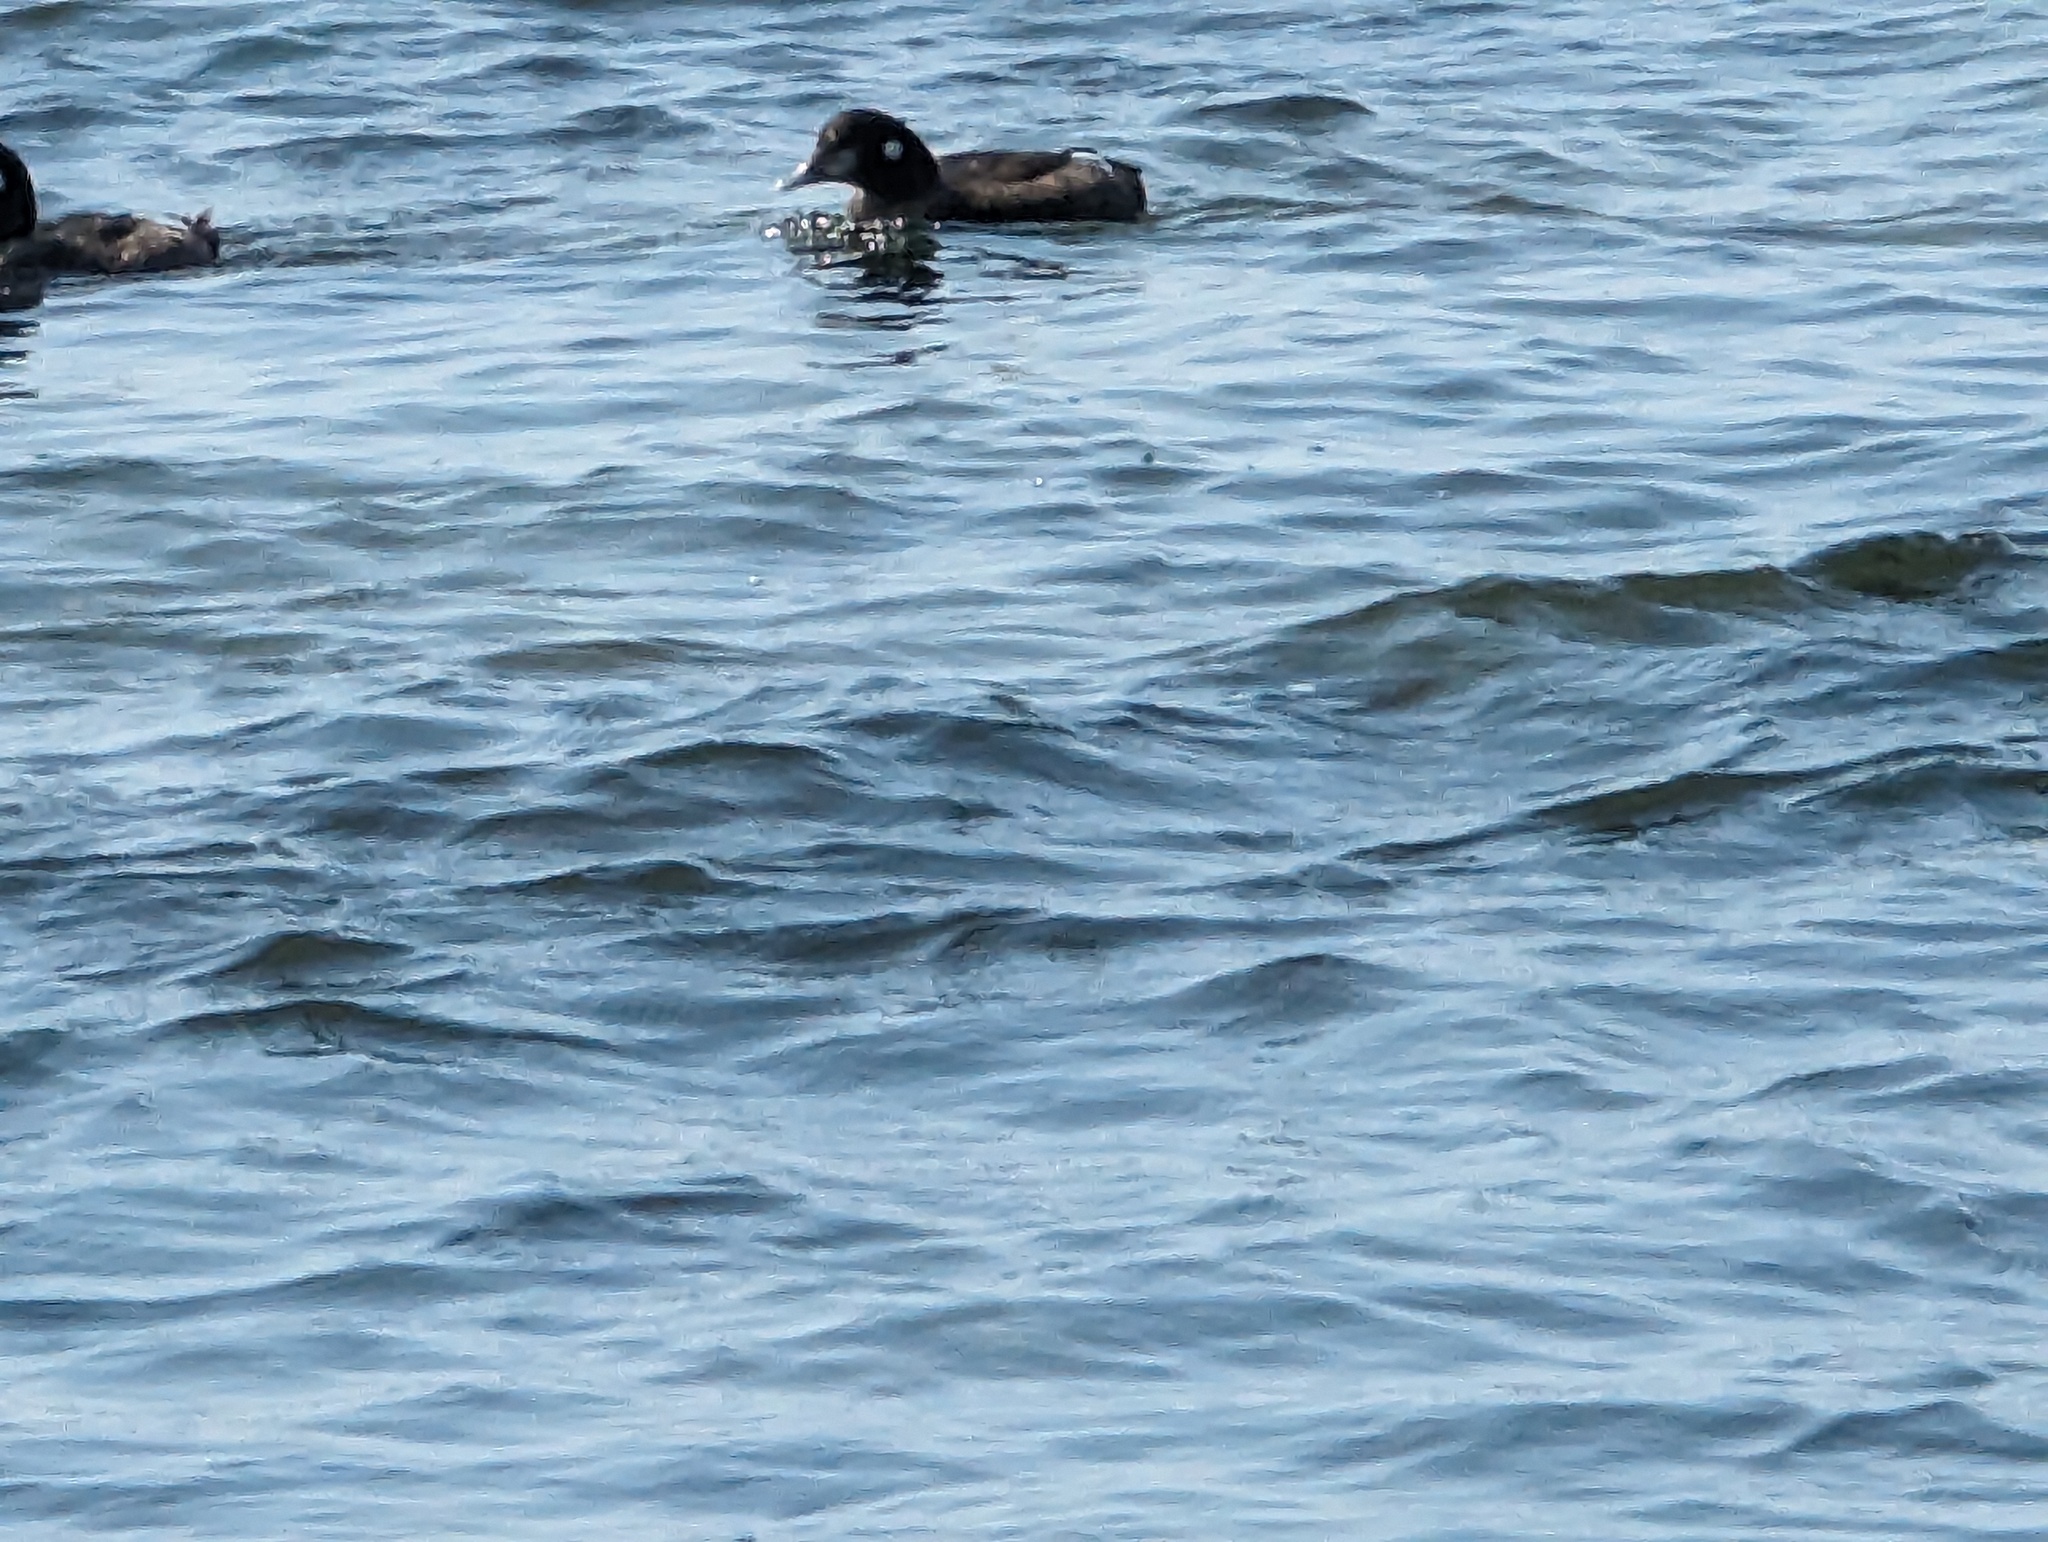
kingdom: Animalia
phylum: Chordata
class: Aves
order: Anseriformes
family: Anatidae
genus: Histrionicus
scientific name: Histrionicus histrionicus
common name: Harlequin duck
